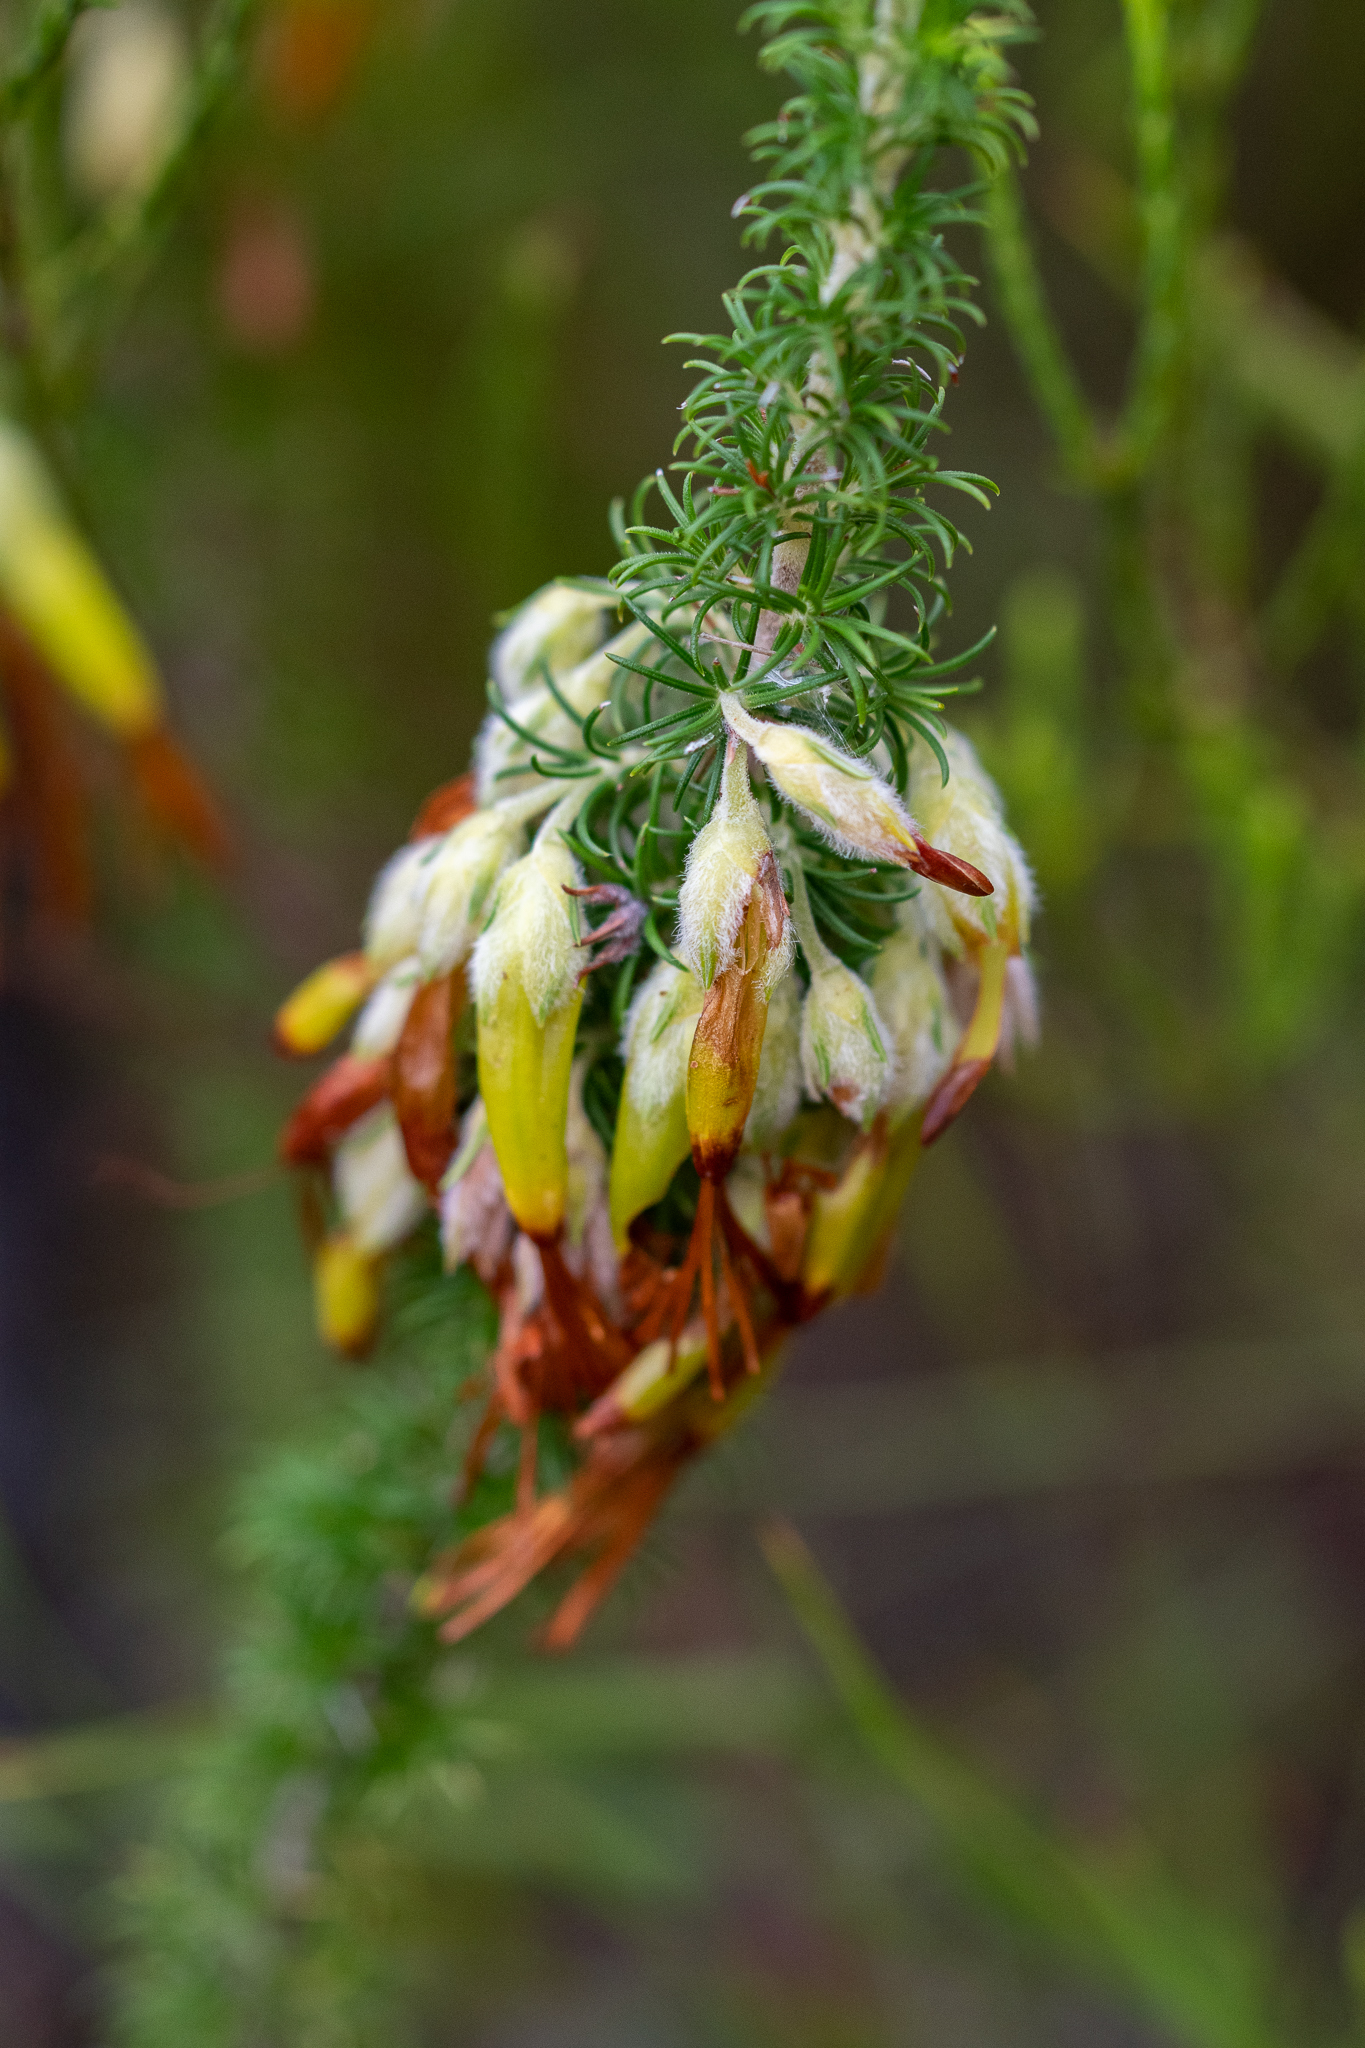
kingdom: Plantae
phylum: Tracheophyta
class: Magnoliopsida
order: Ericales
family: Ericaceae
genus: Erica
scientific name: Erica coccinea
